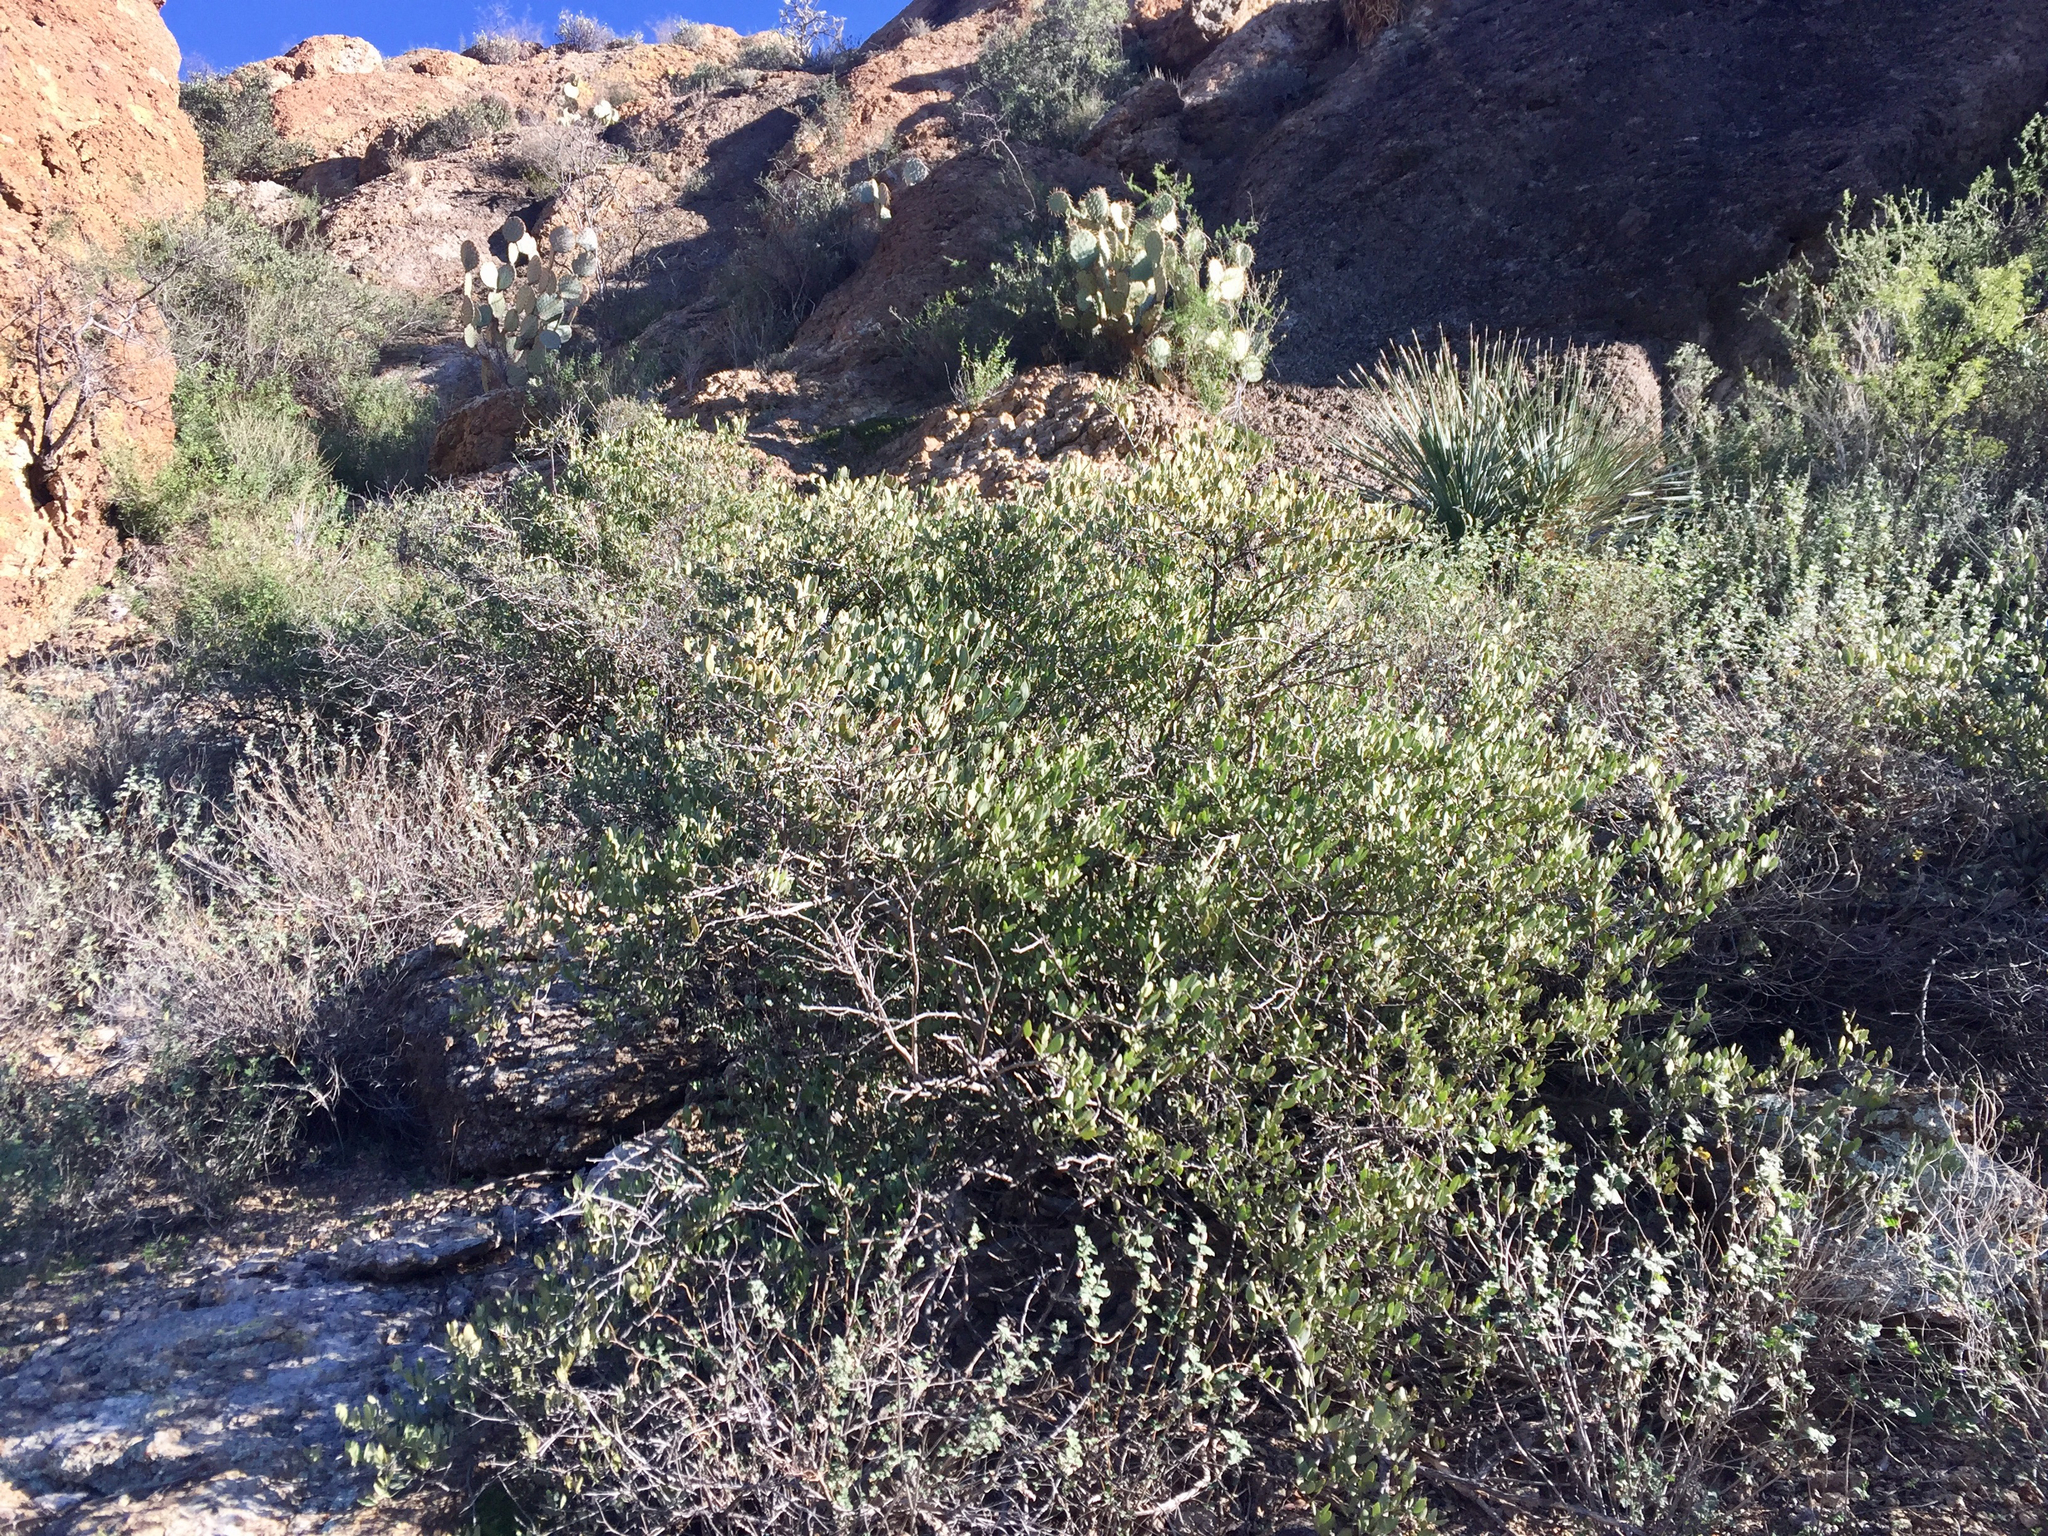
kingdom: Plantae
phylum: Tracheophyta
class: Magnoliopsida
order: Caryophyllales
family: Simmondsiaceae
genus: Simmondsia
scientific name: Simmondsia chinensis
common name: Jojoba
